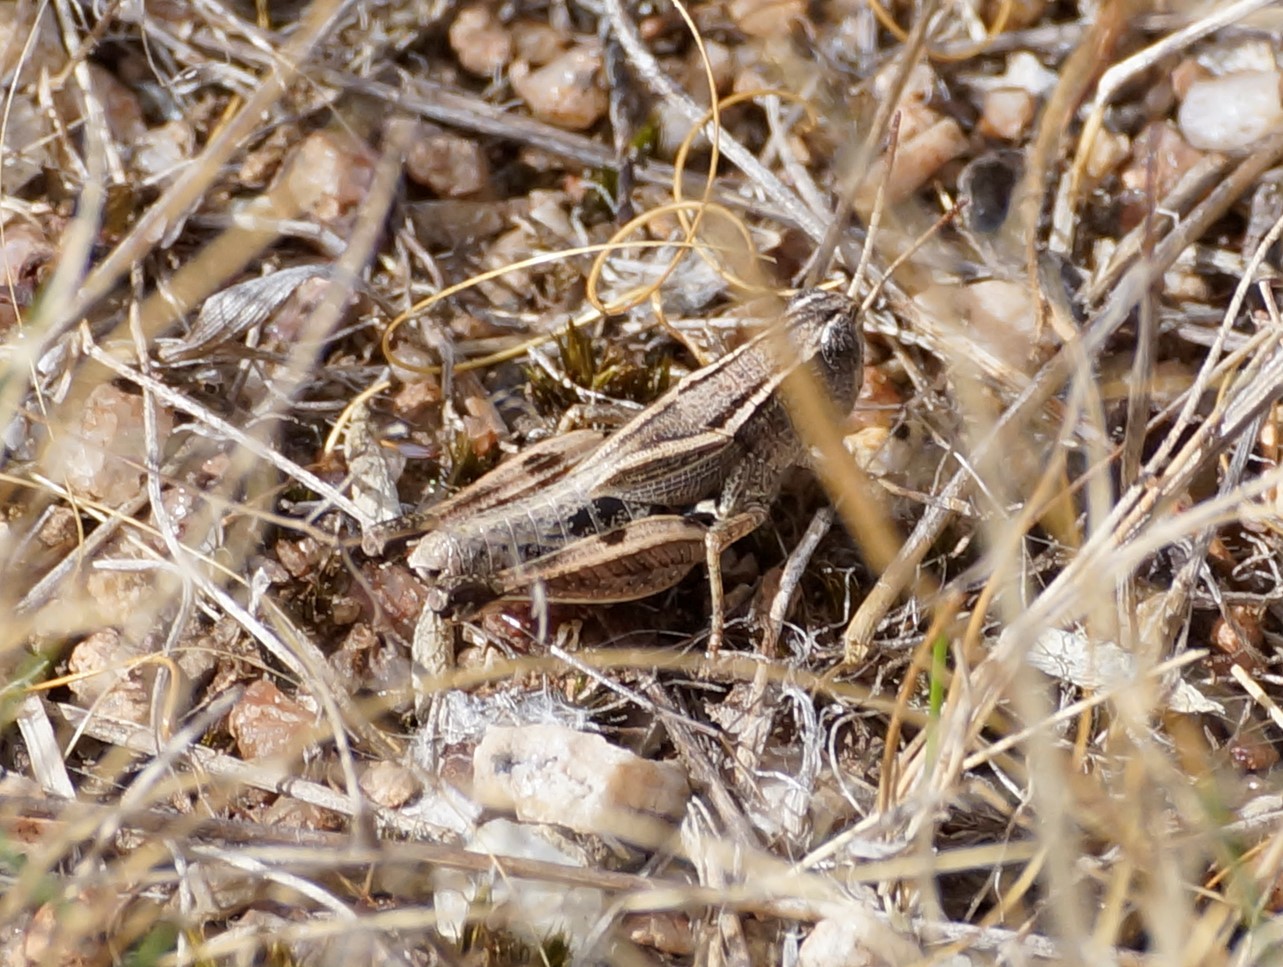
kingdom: Animalia
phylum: Arthropoda
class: Insecta
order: Orthoptera
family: Acrididae
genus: Phaulacridium
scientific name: Phaulacridium vittatum
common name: Wingless grasshopper
